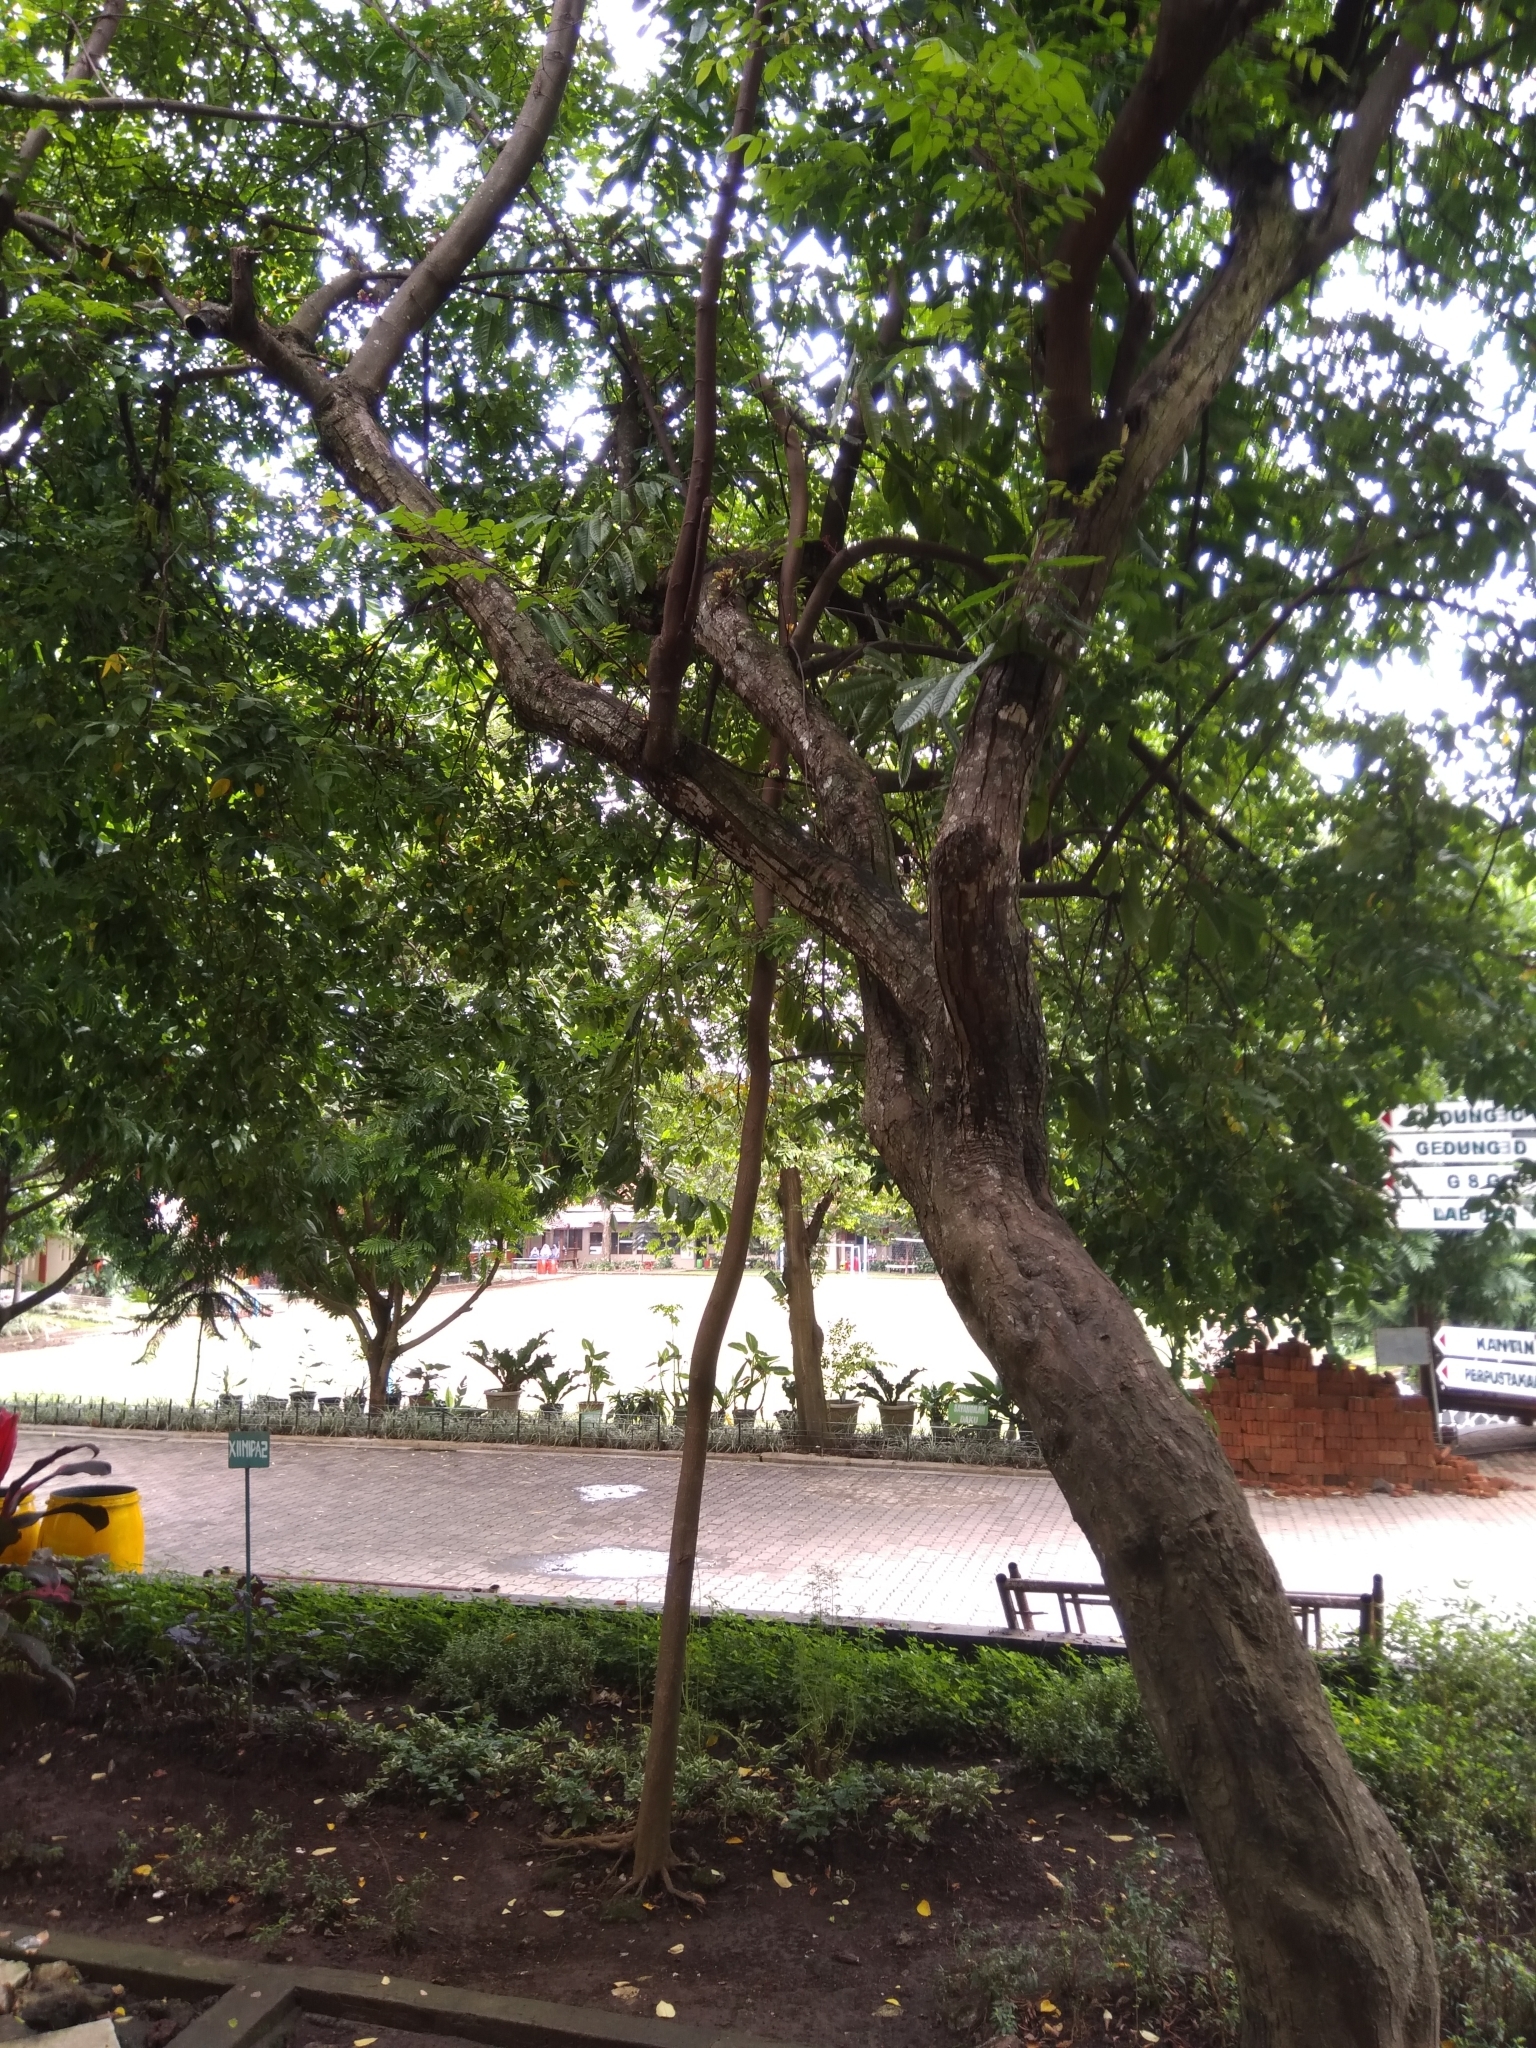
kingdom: Plantae
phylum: Tracheophyta
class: Magnoliopsida
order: Oxalidales
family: Oxalidaceae
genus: Averrhoa
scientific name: Averrhoa carambola
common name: Blimbing
